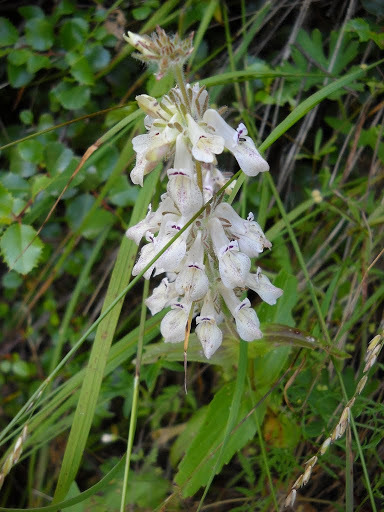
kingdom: Plantae
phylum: Tracheophyta
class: Magnoliopsida
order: Lamiales
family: Plantaginaceae
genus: Collinsia
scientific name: Collinsia tinctoria
